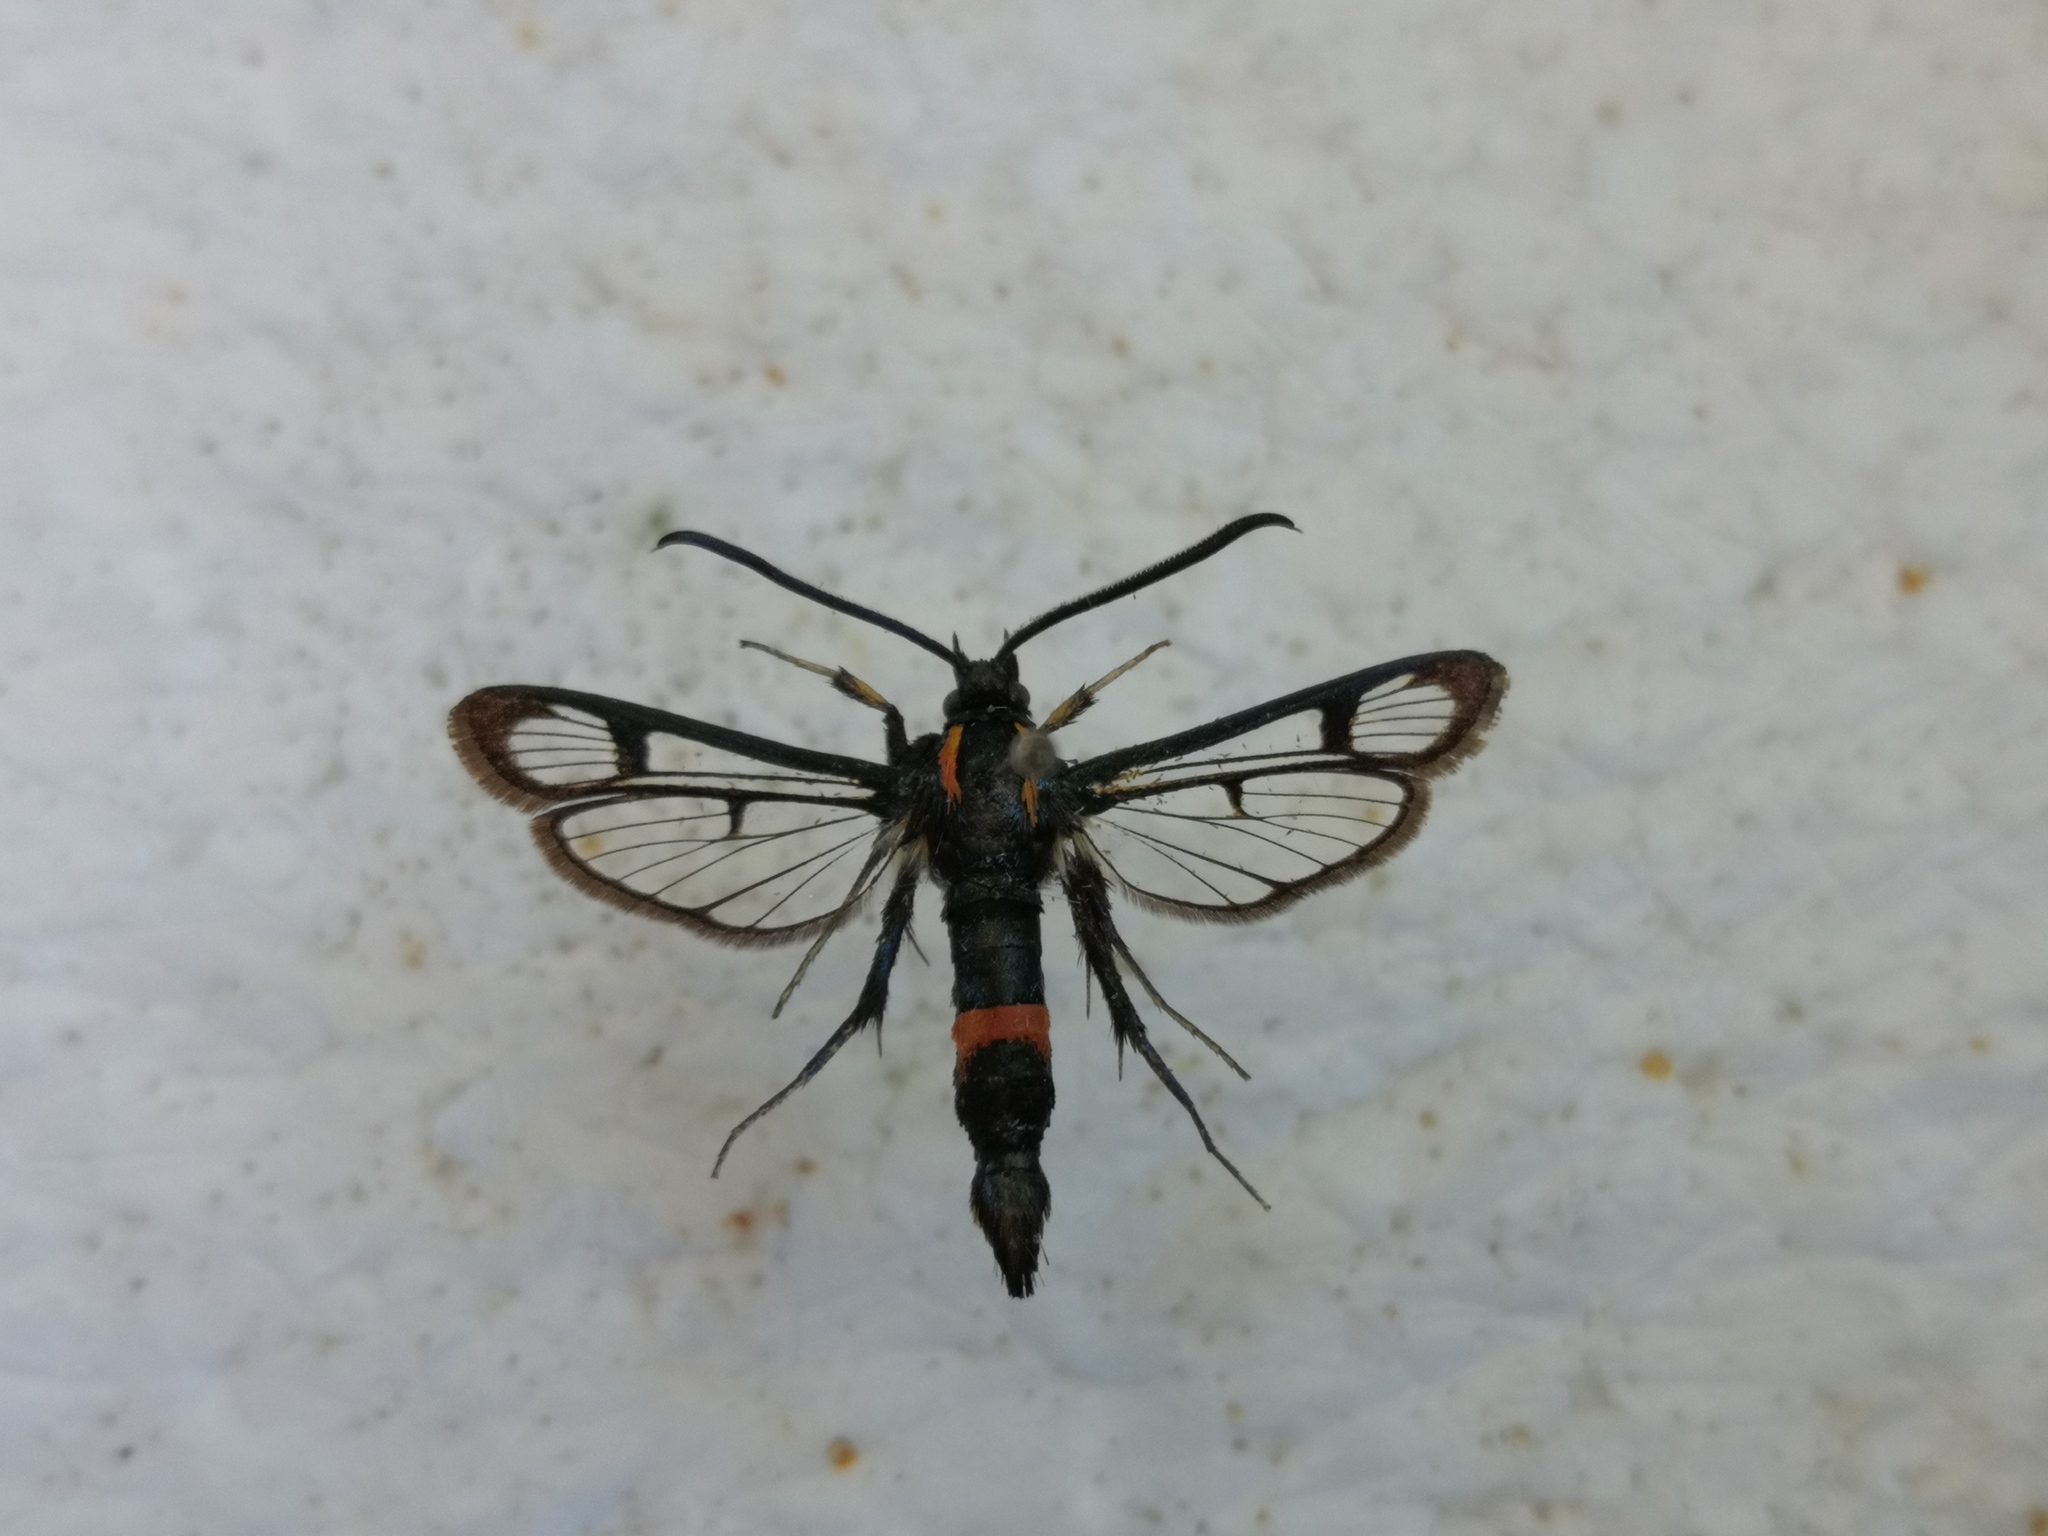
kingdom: Animalia
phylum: Arthropoda
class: Insecta
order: Lepidoptera
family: Sesiidae
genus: Synanthedon
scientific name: Synanthedon stomoxiformis
